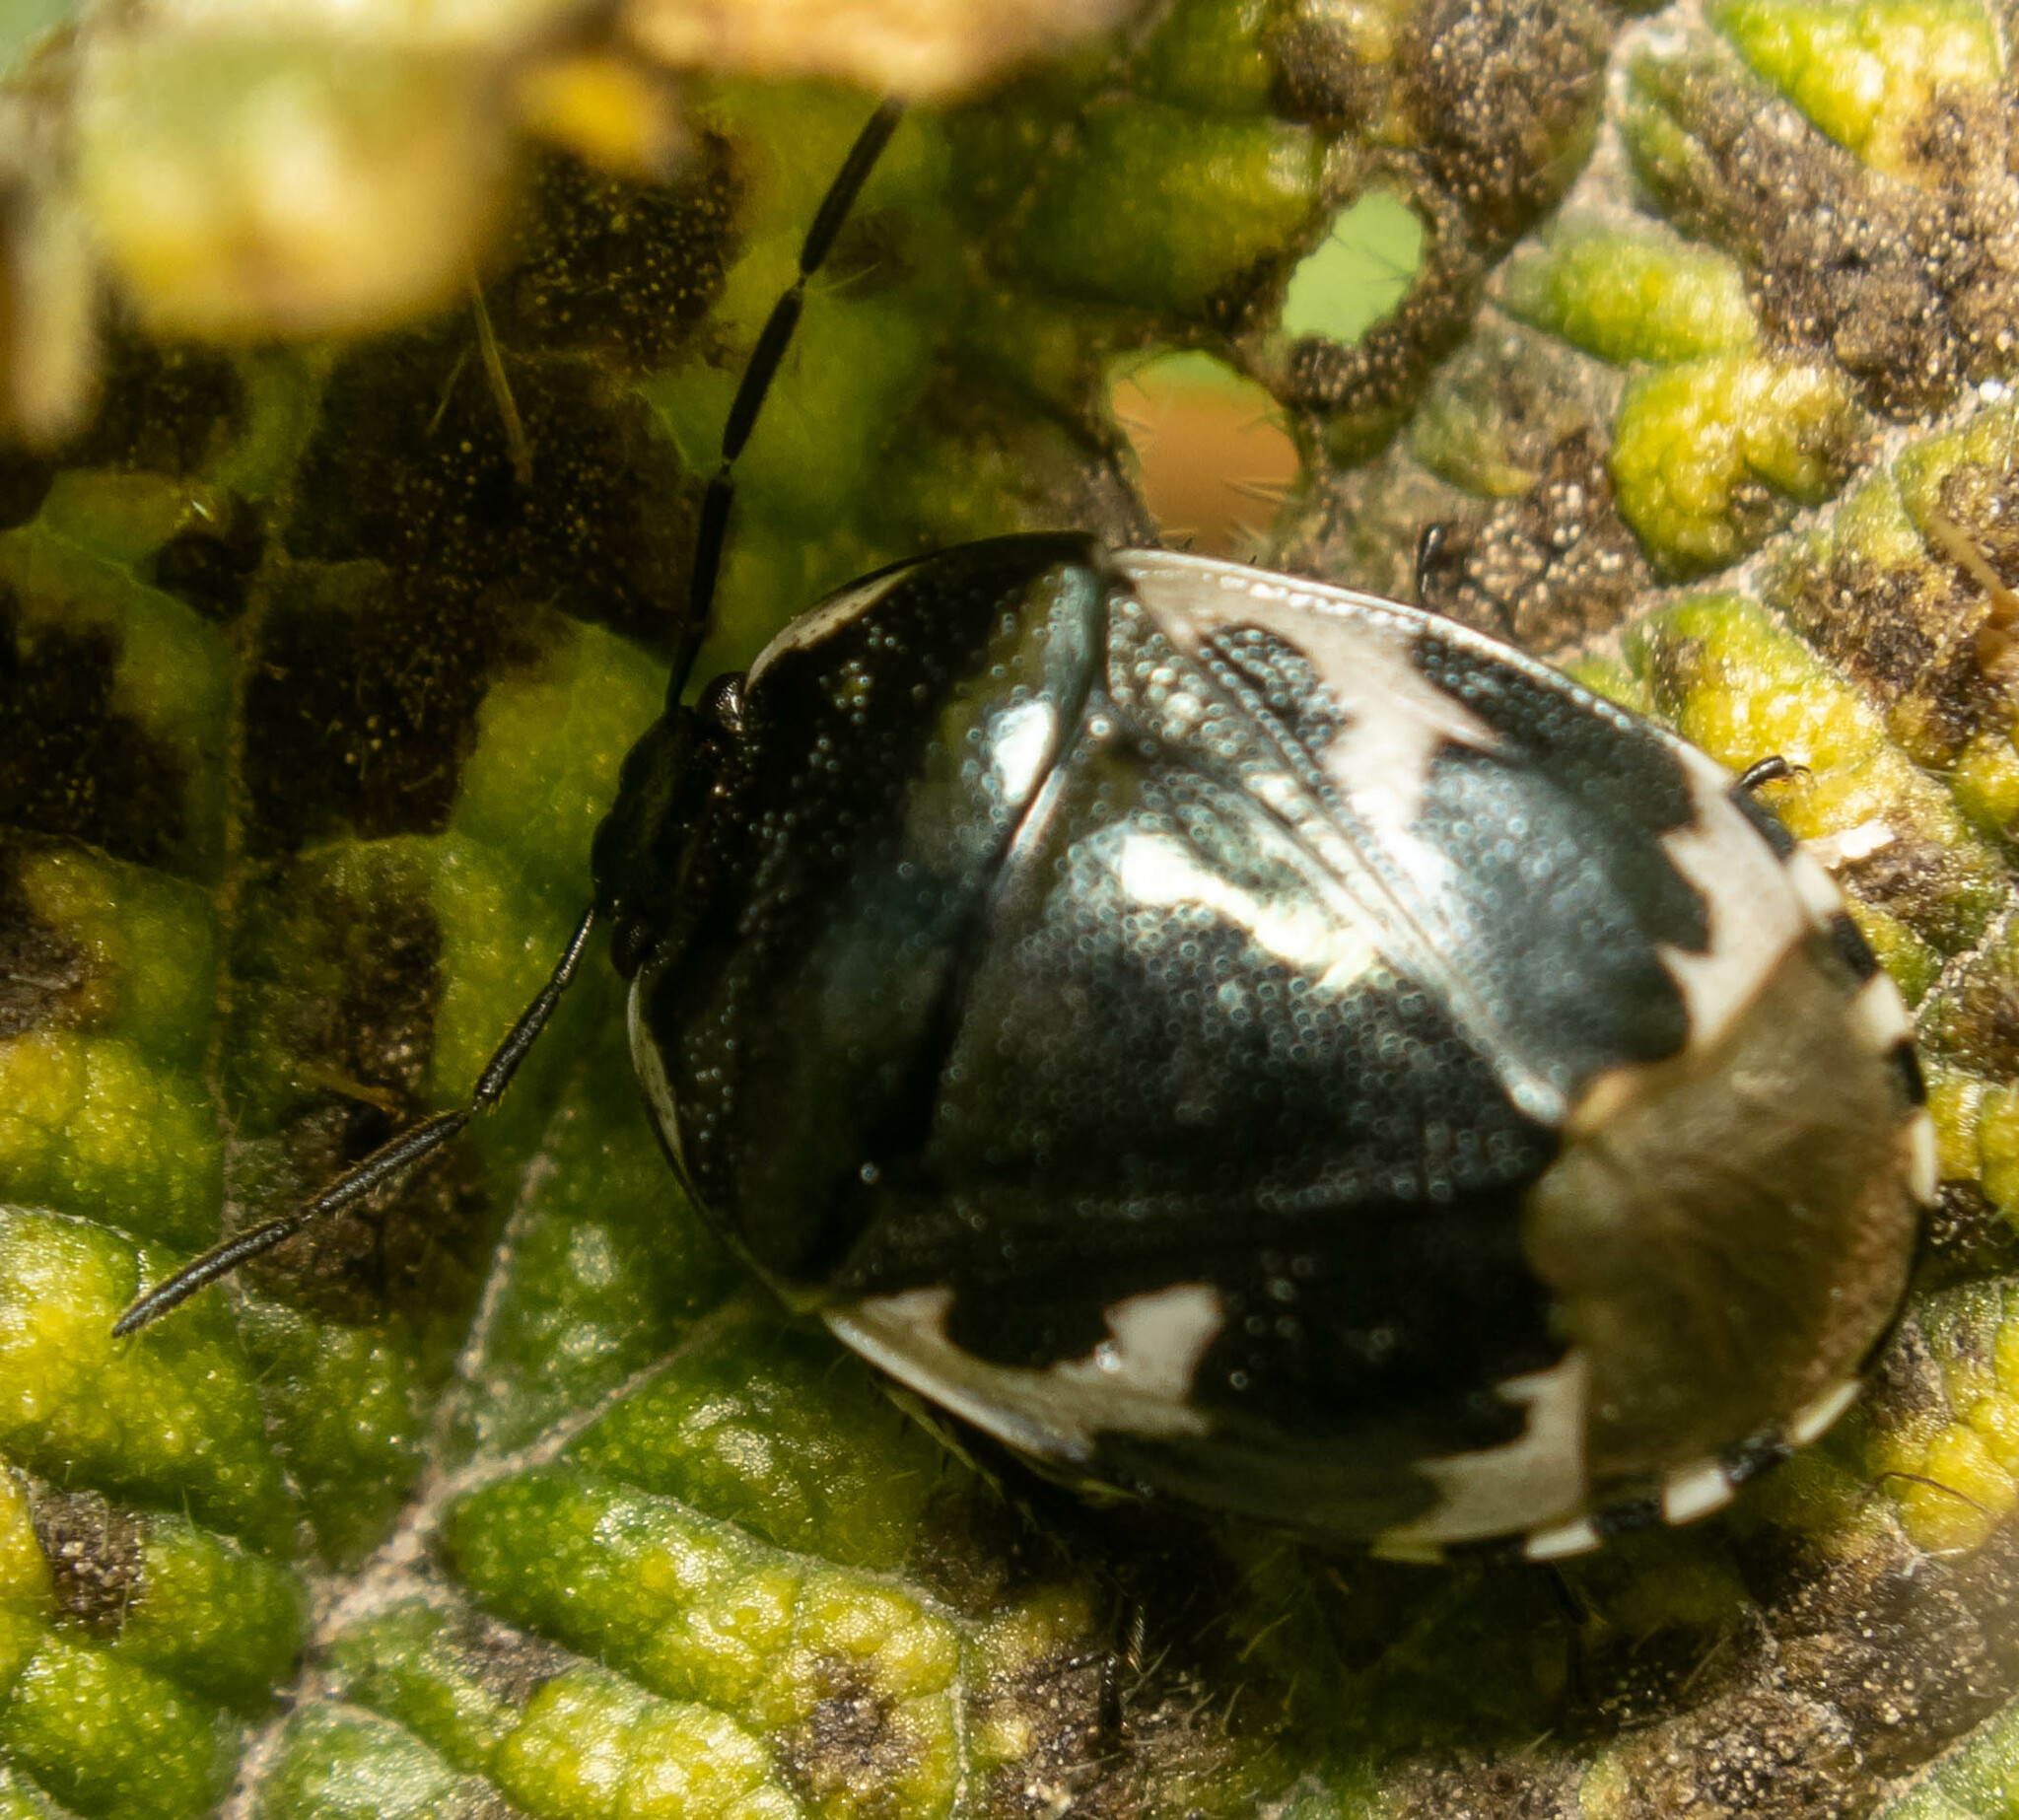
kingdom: Animalia
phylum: Arthropoda
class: Insecta
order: Hemiptera
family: Cydnidae
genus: Tritomegas
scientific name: Tritomegas bicolor
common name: Pied shieldbug
